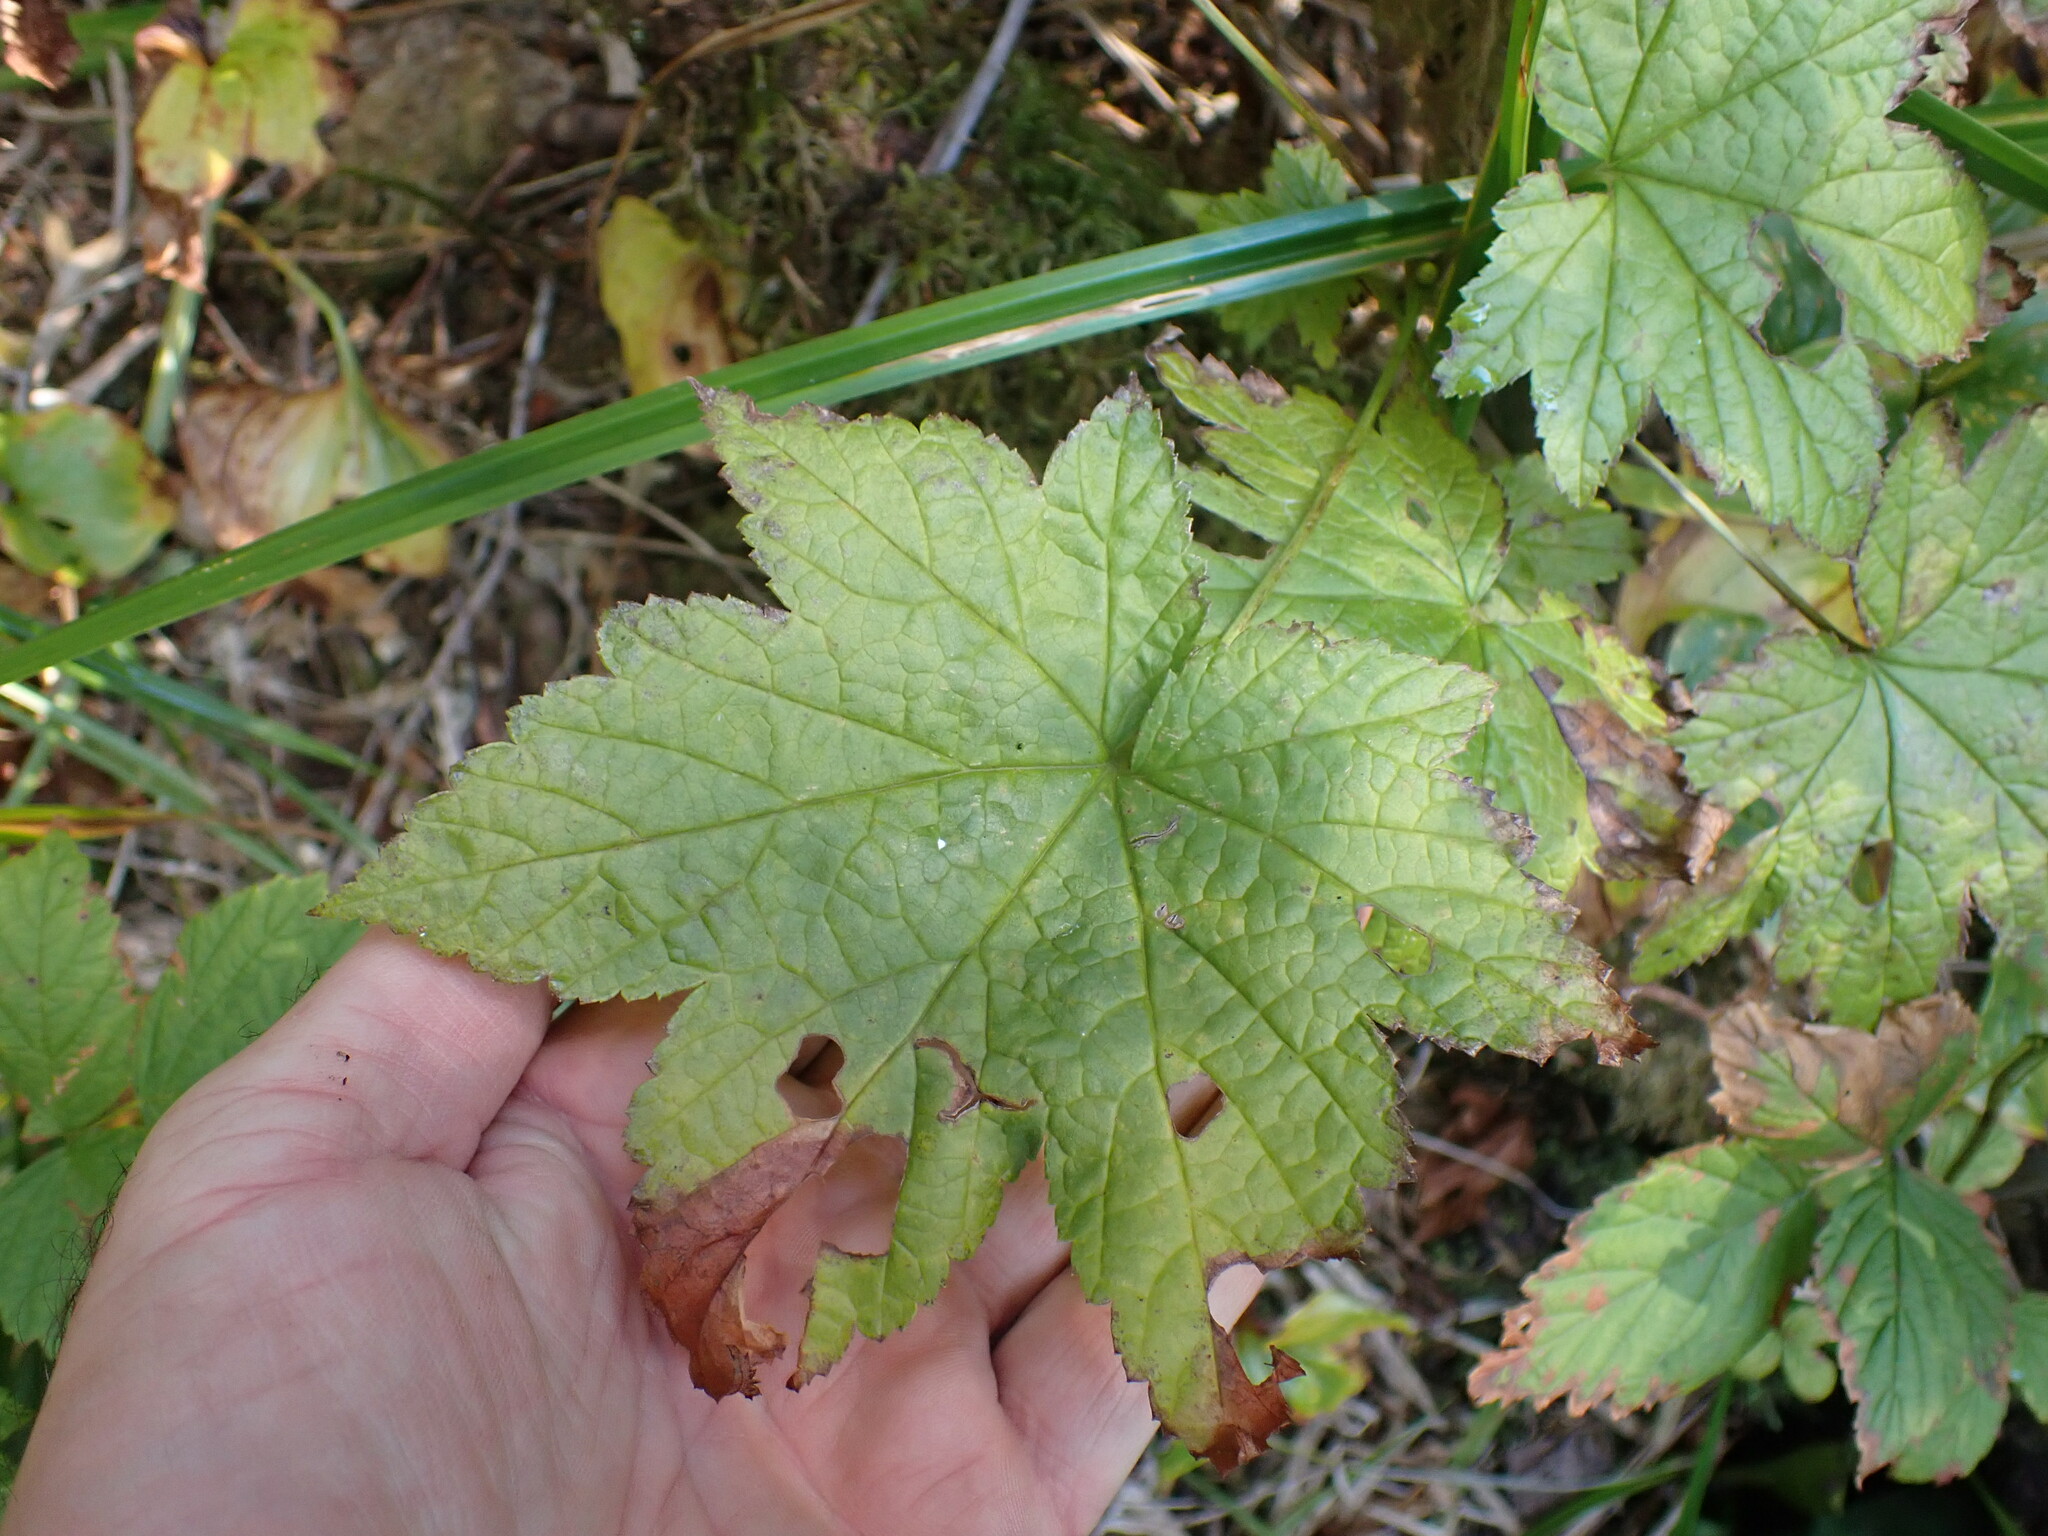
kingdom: Plantae
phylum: Tracheophyta
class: Magnoliopsida
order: Saxifragales
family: Grossulariaceae
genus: Ribes
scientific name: Ribes bracteosum
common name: California black currant
